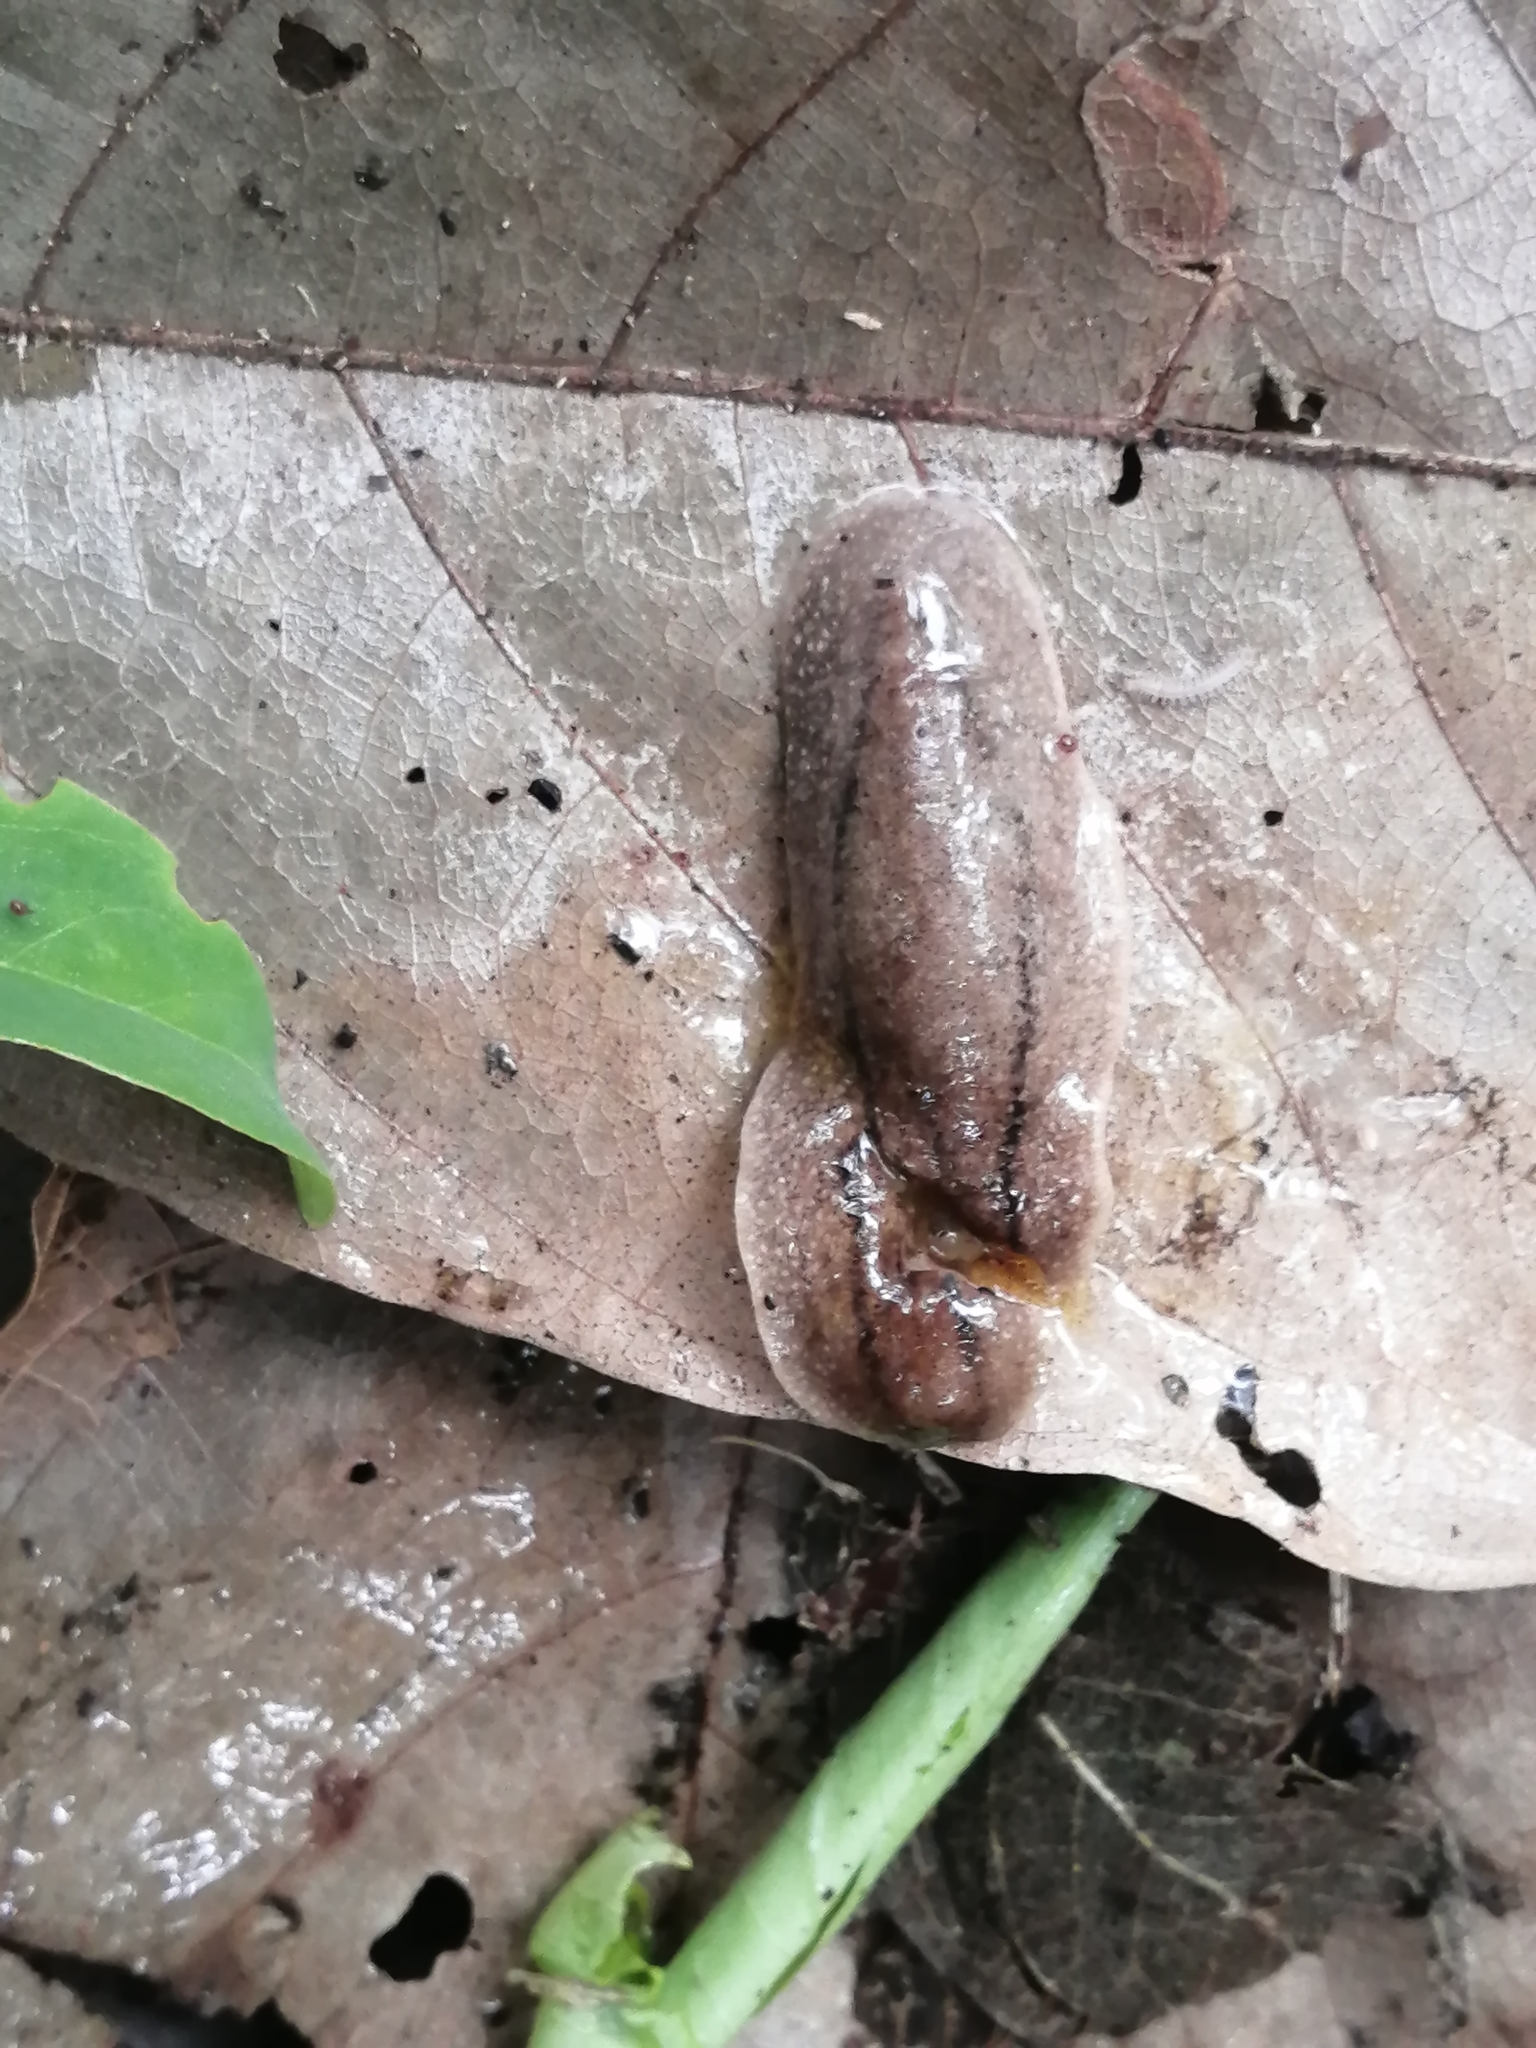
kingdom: Animalia
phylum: Mollusca
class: Gastropoda
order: Systellommatophora
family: Veronicellidae
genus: Leidyula
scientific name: Leidyula moreleti
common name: Tan leatherleaf
